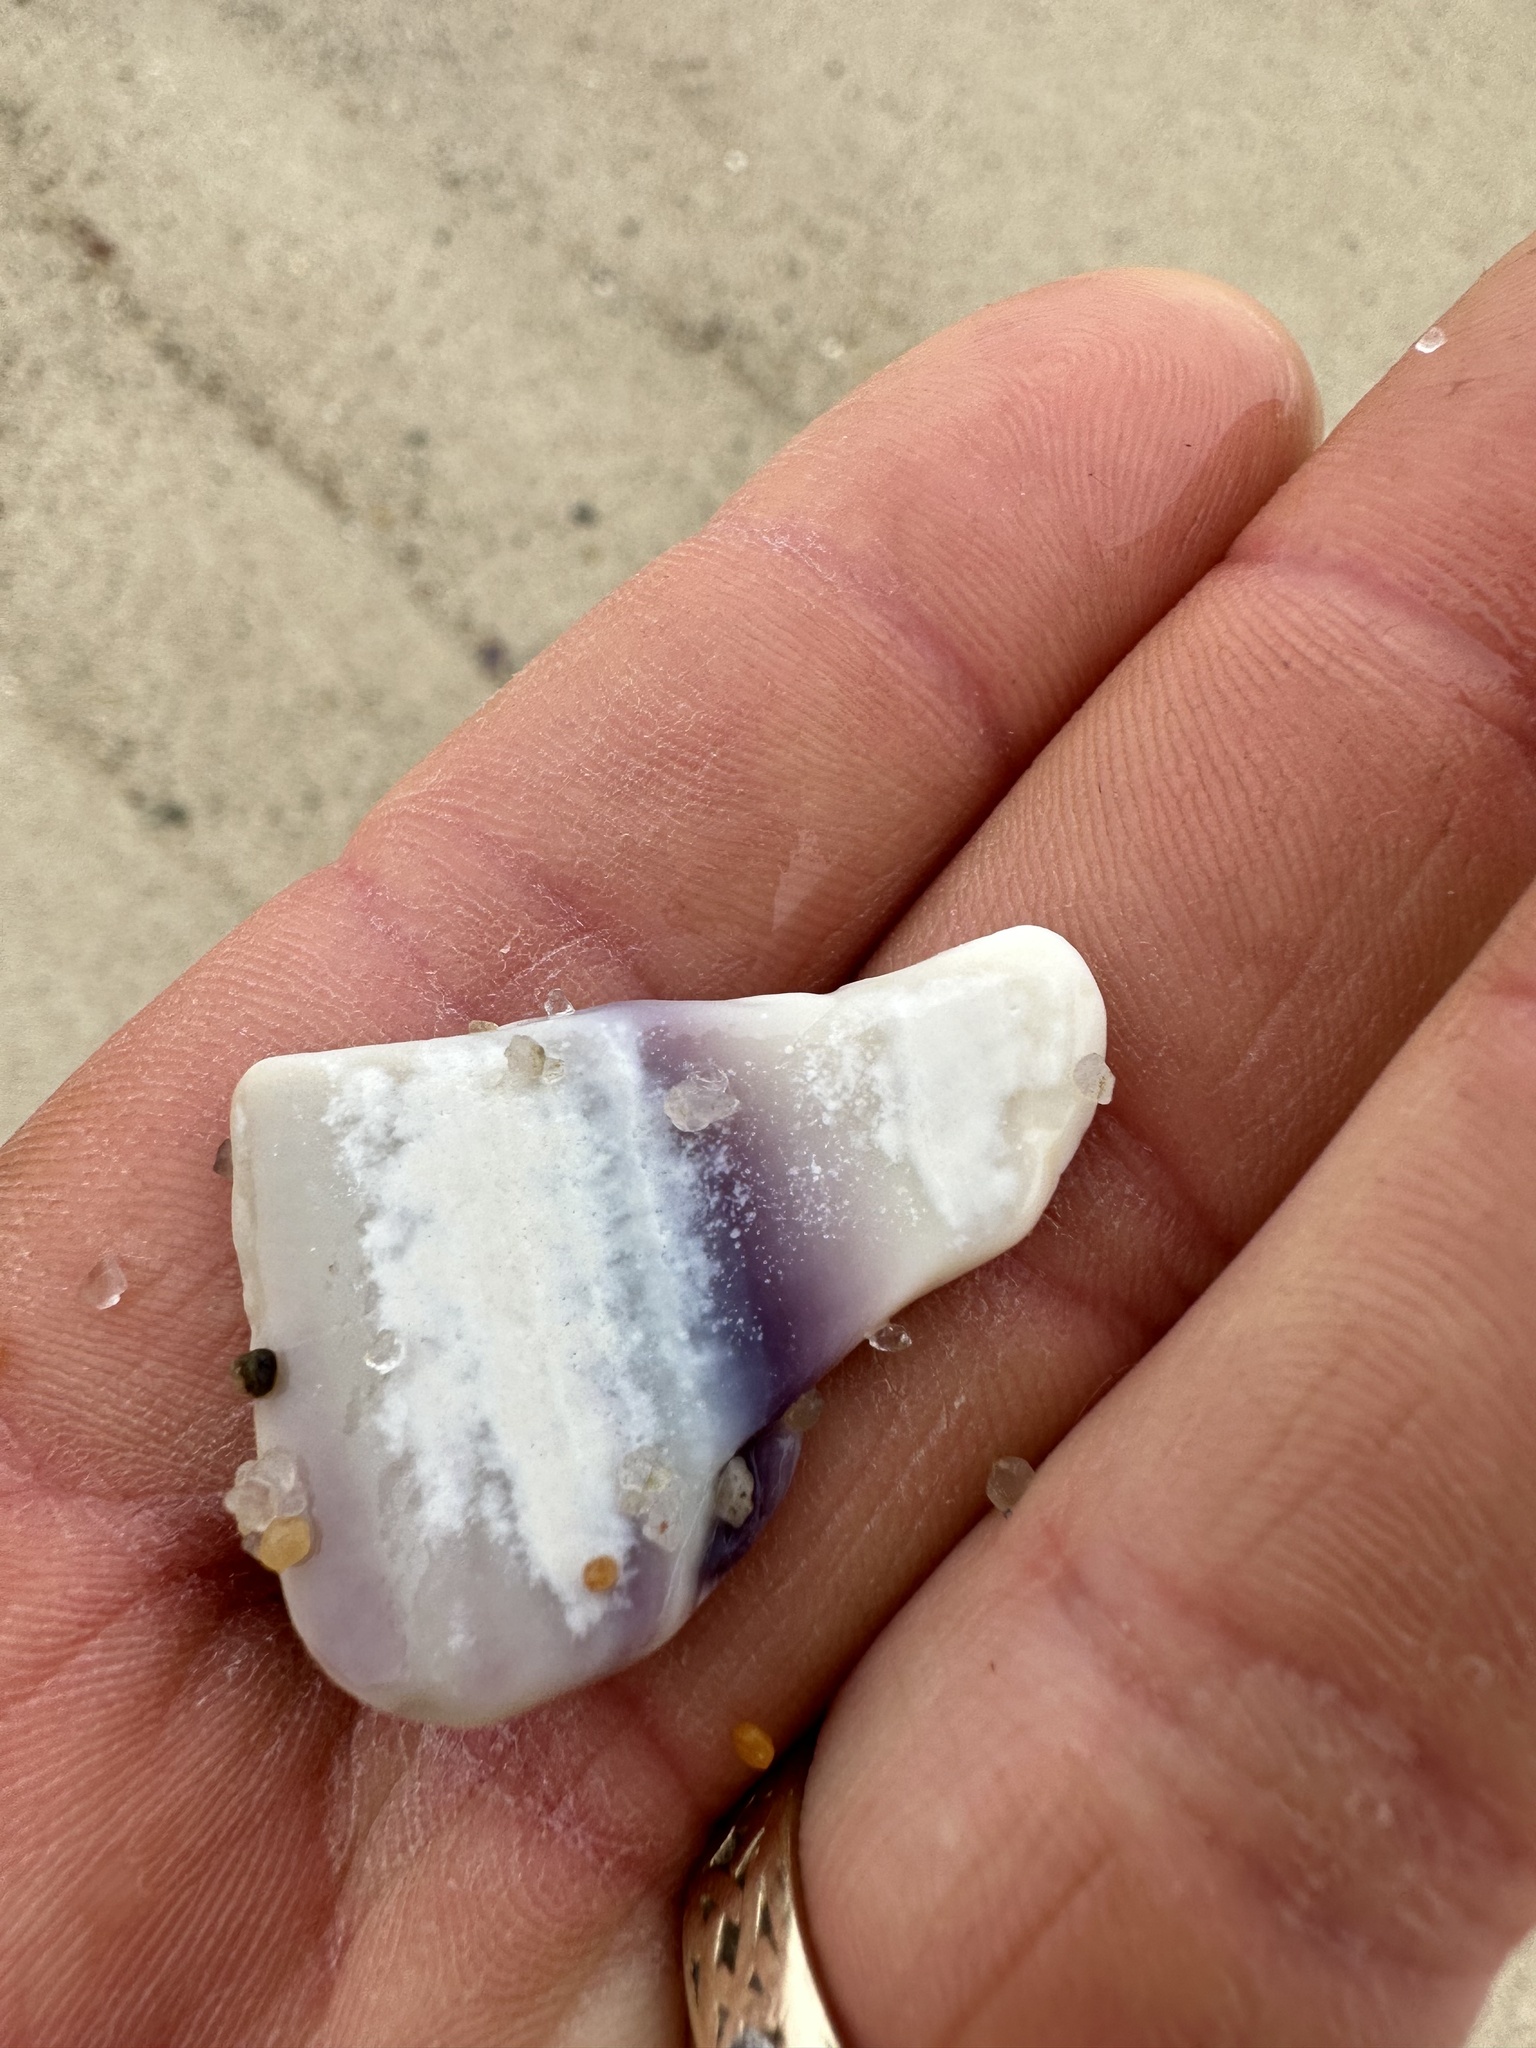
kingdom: Animalia
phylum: Mollusca
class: Bivalvia
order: Venerida
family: Veneridae
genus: Mercenaria
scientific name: Mercenaria mercenaria
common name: American hard-shelled clam
